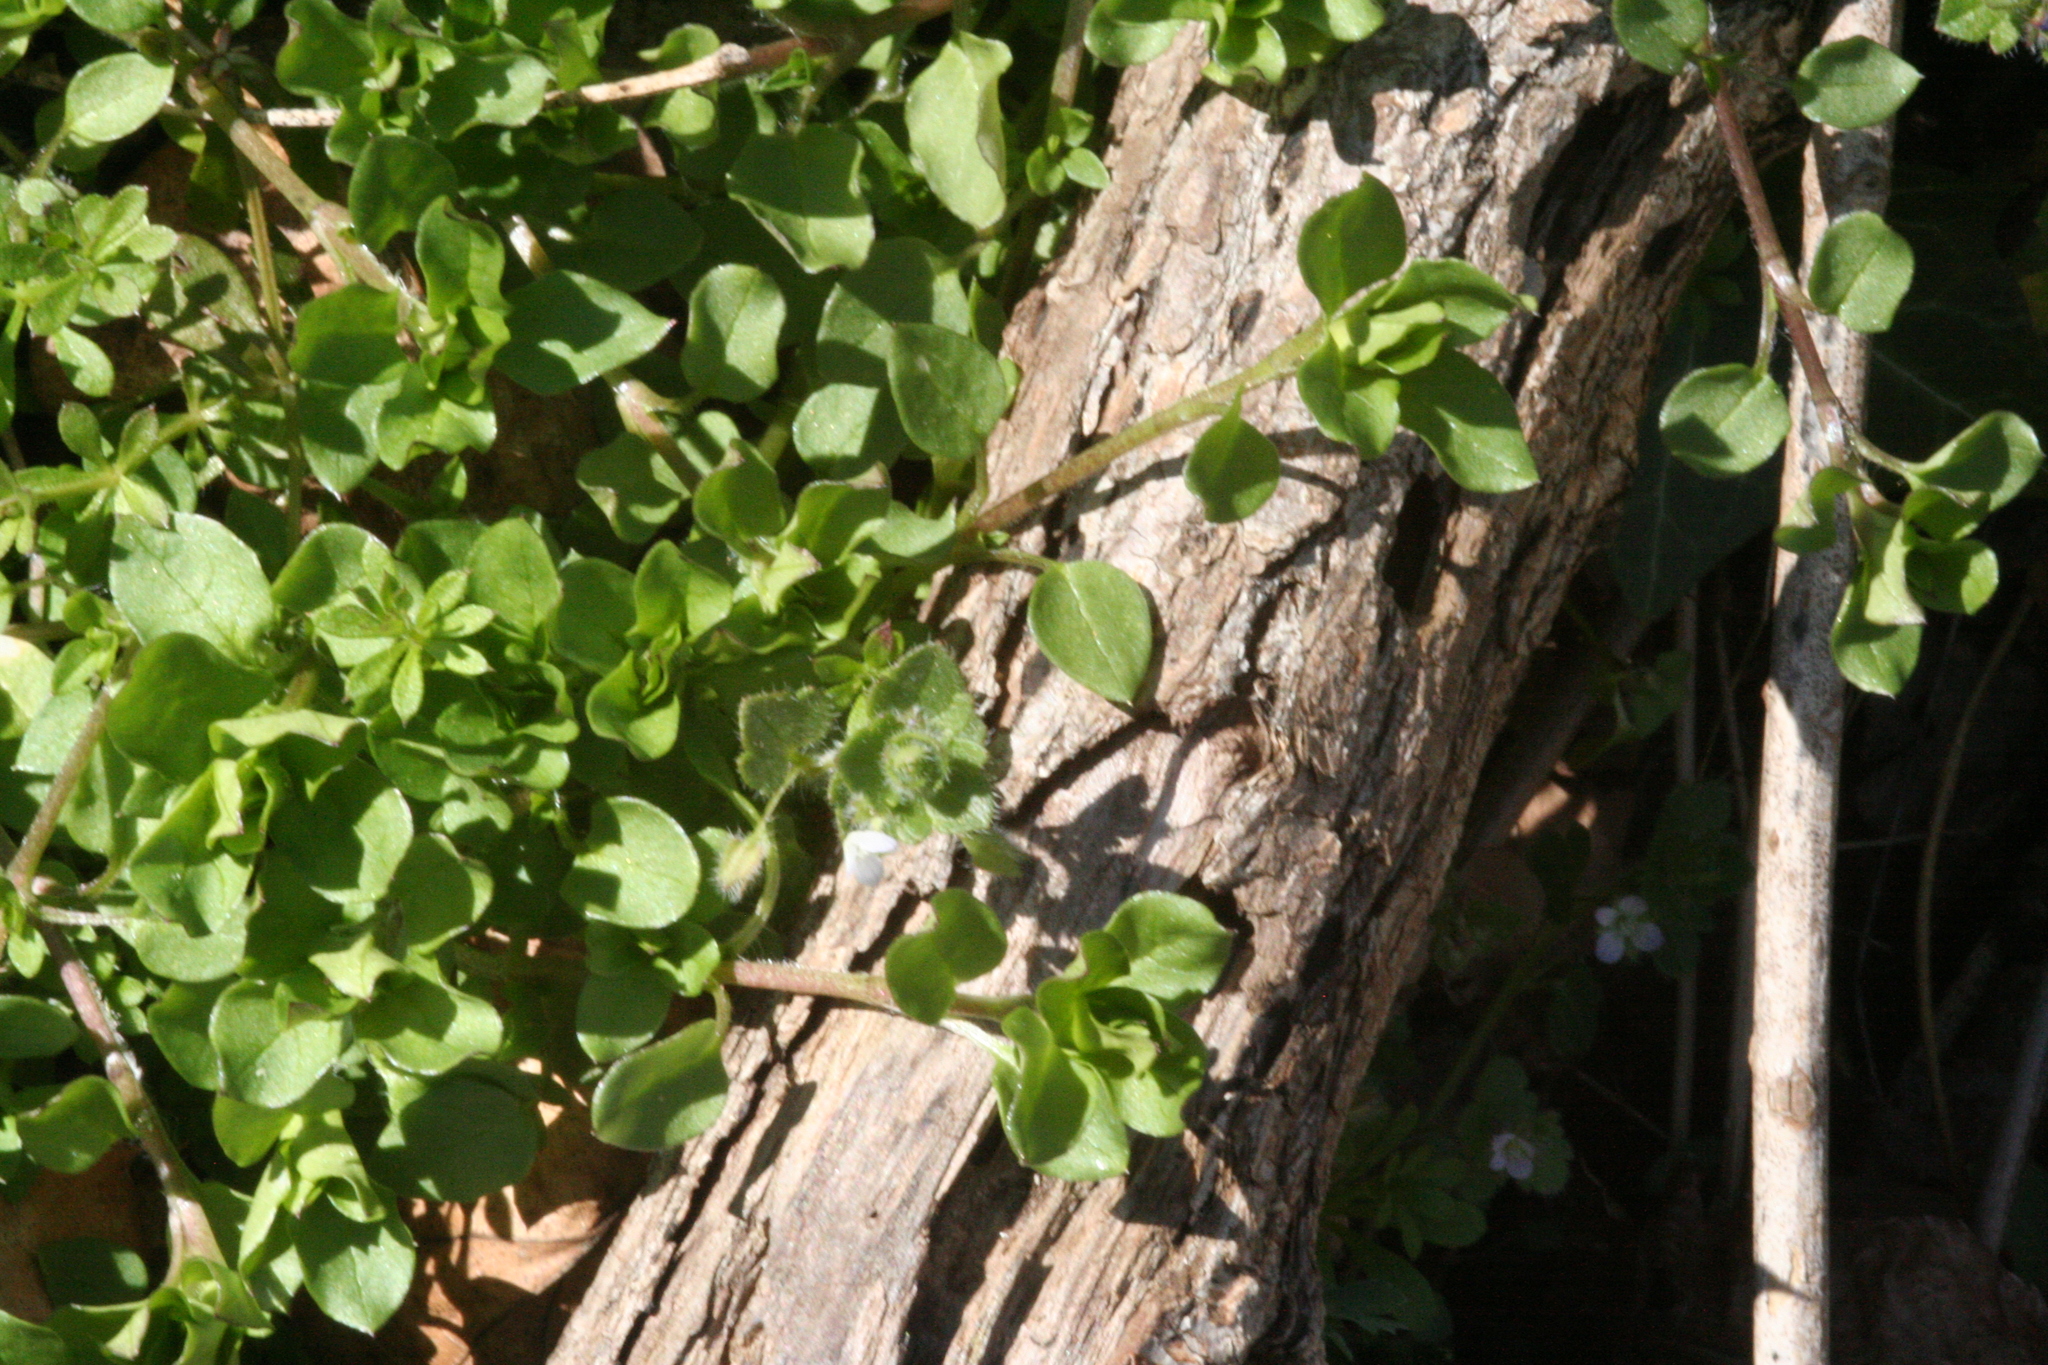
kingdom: Plantae
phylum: Tracheophyta
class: Magnoliopsida
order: Caryophyllales
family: Caryophyllaceae
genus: Stellaria
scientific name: Stellaria media
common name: Common chickweed
